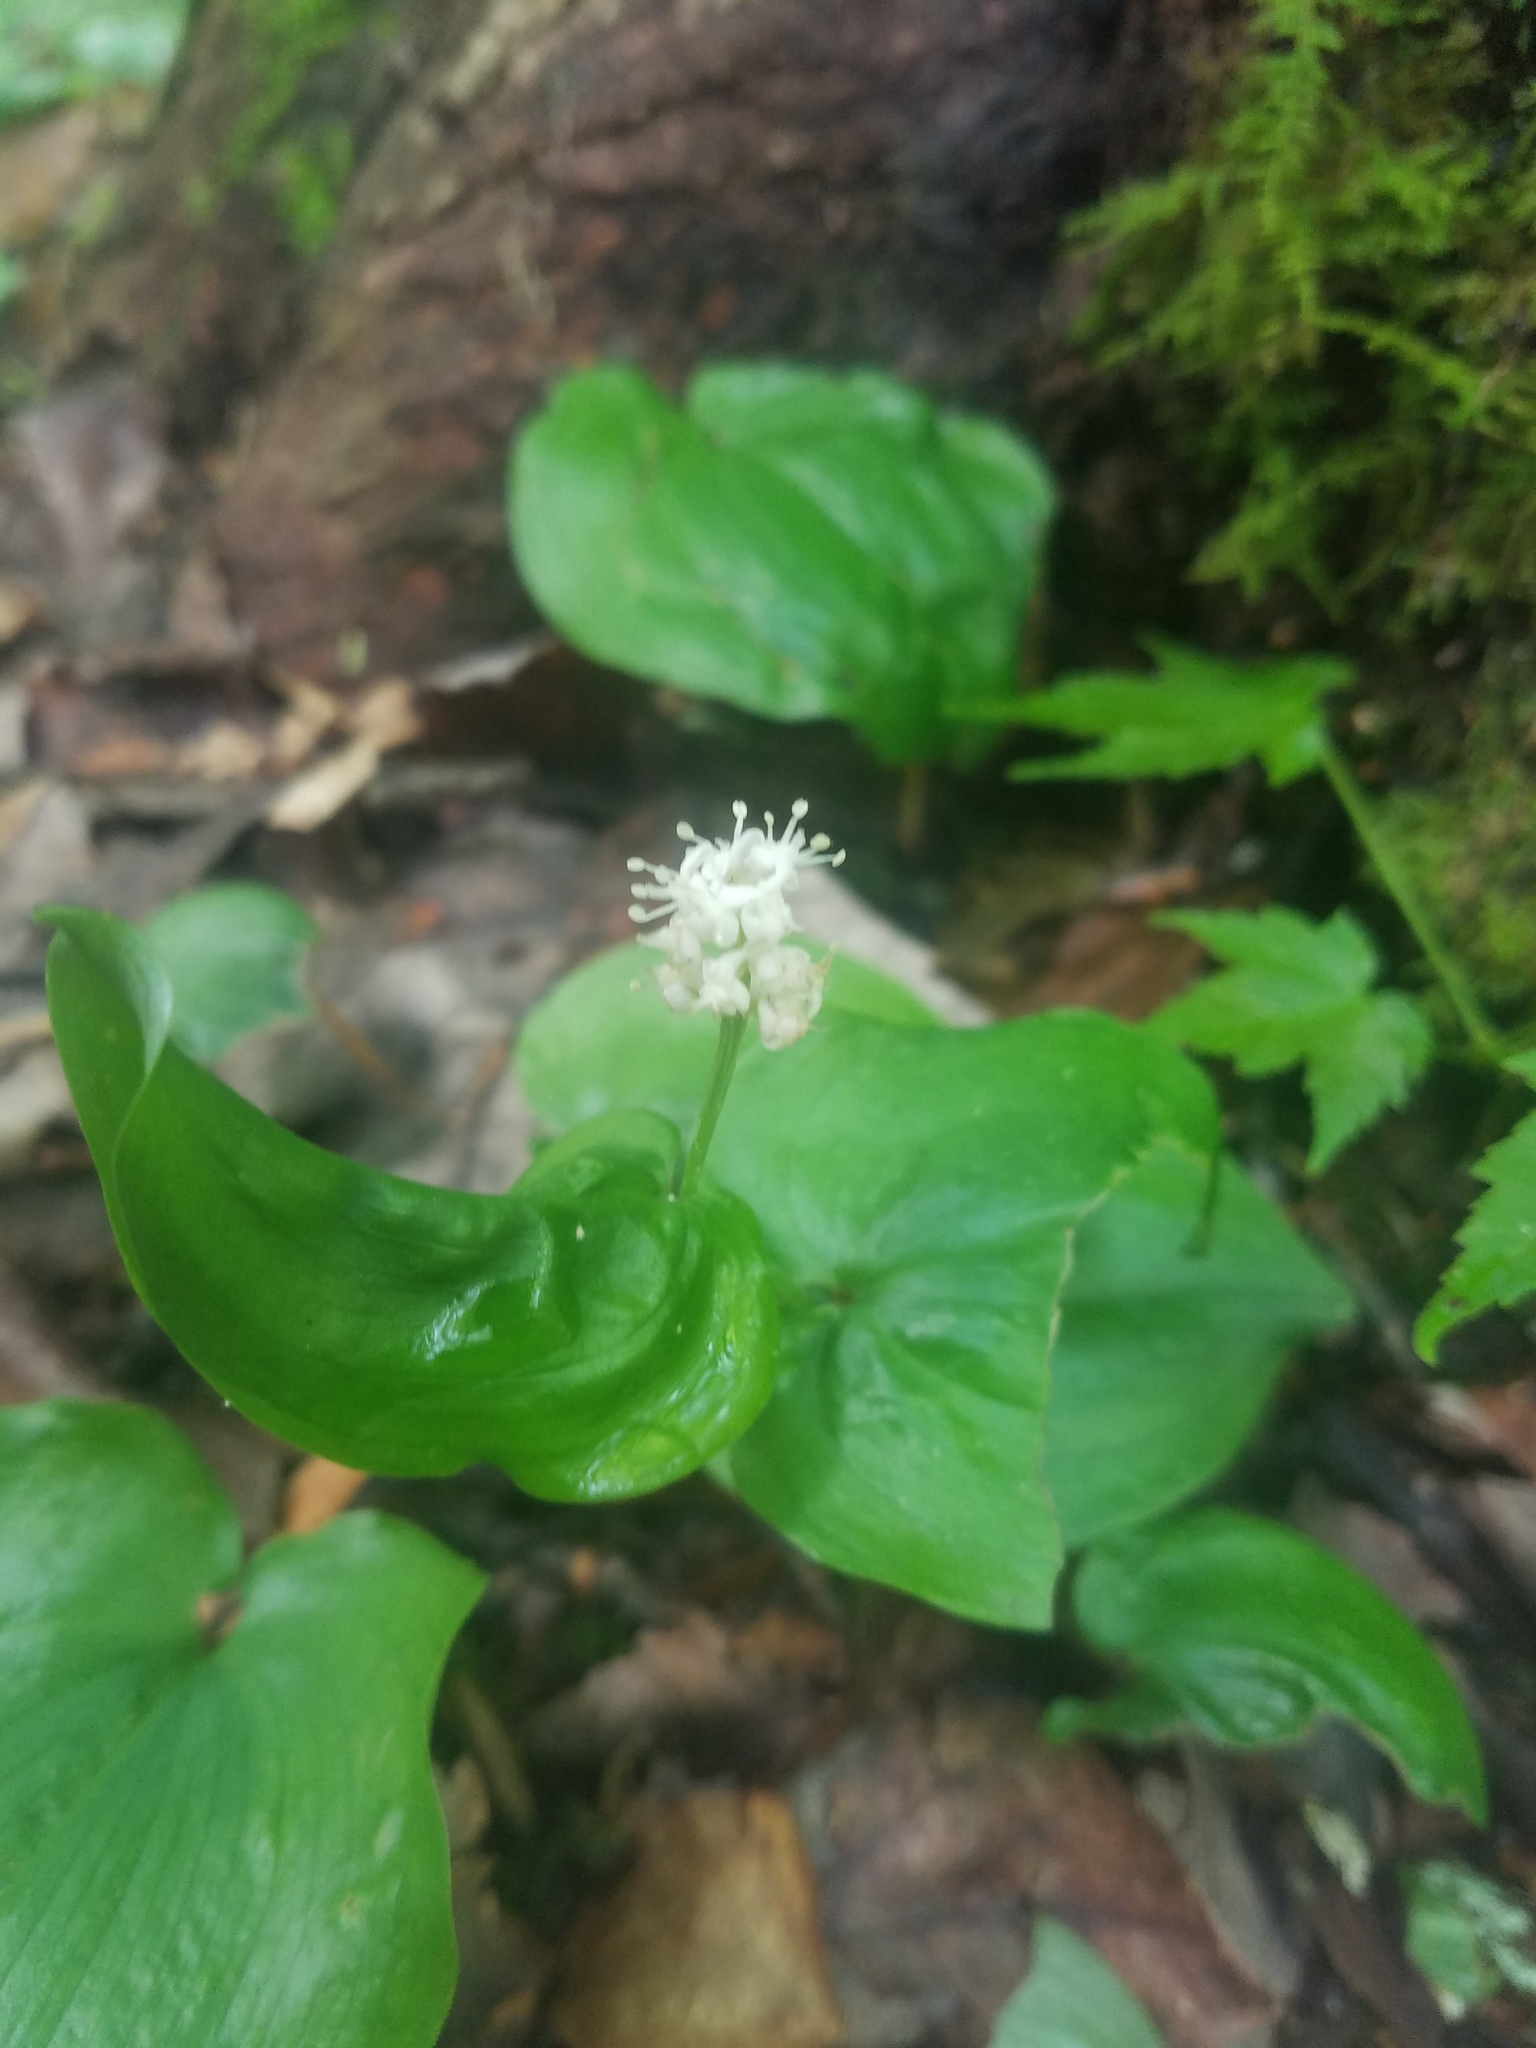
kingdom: Plantae
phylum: Tracheophyta
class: Liliopsida
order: Asparagales
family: Asparagaceae
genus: Maianthemum
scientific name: Maianthemum canadense
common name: False lily-of-the-valley
